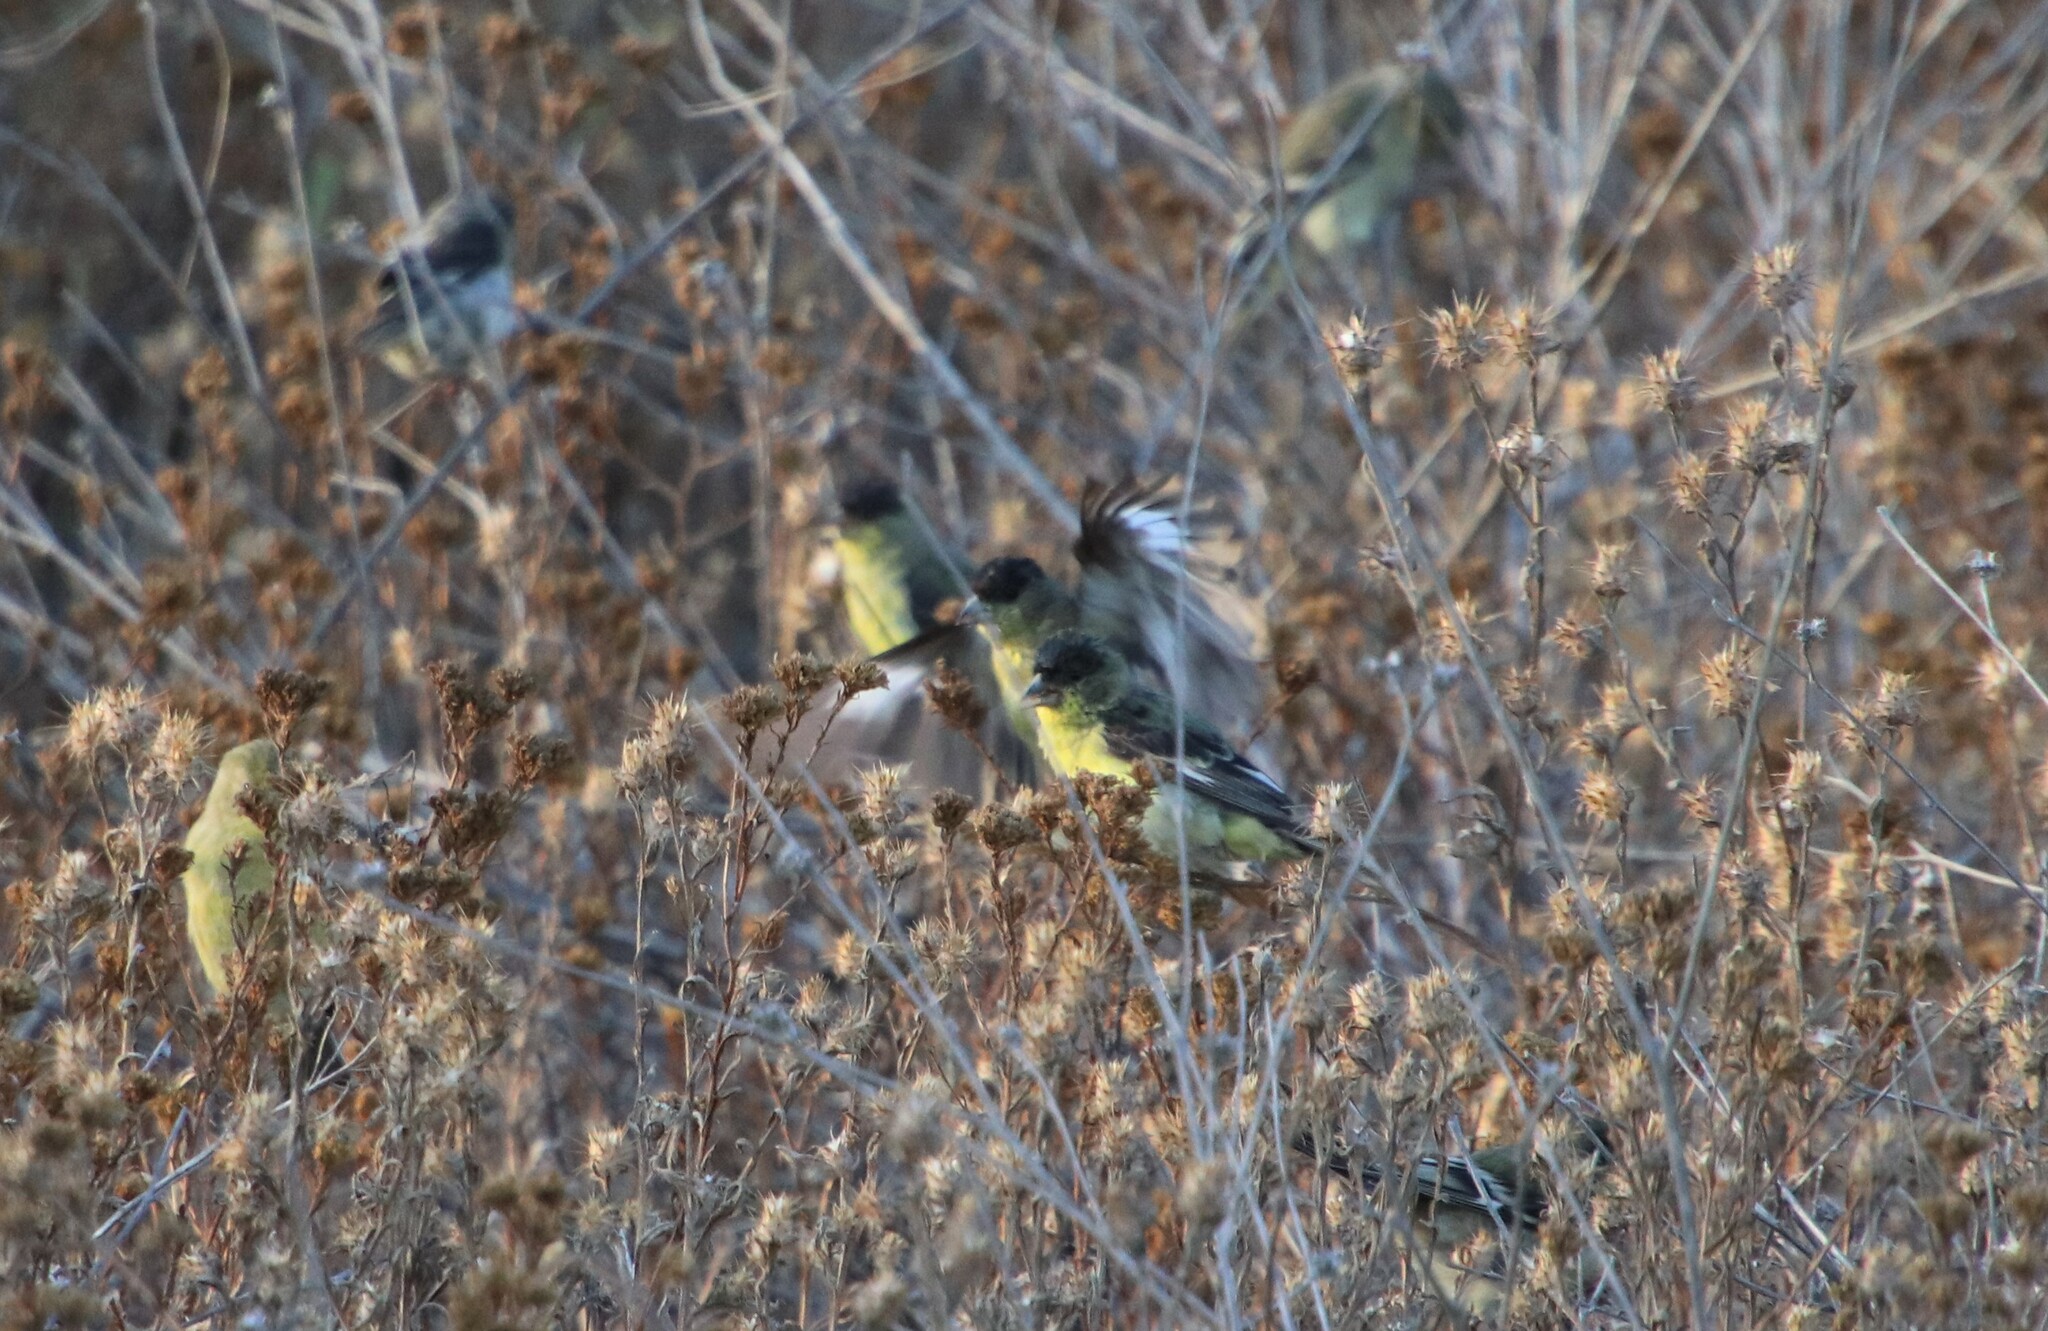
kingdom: Animalia
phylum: Chordata
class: Aves
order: Passeriformes
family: Fringillidae
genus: Spinus
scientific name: Spinus psaltria
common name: Lesser goldfinch
